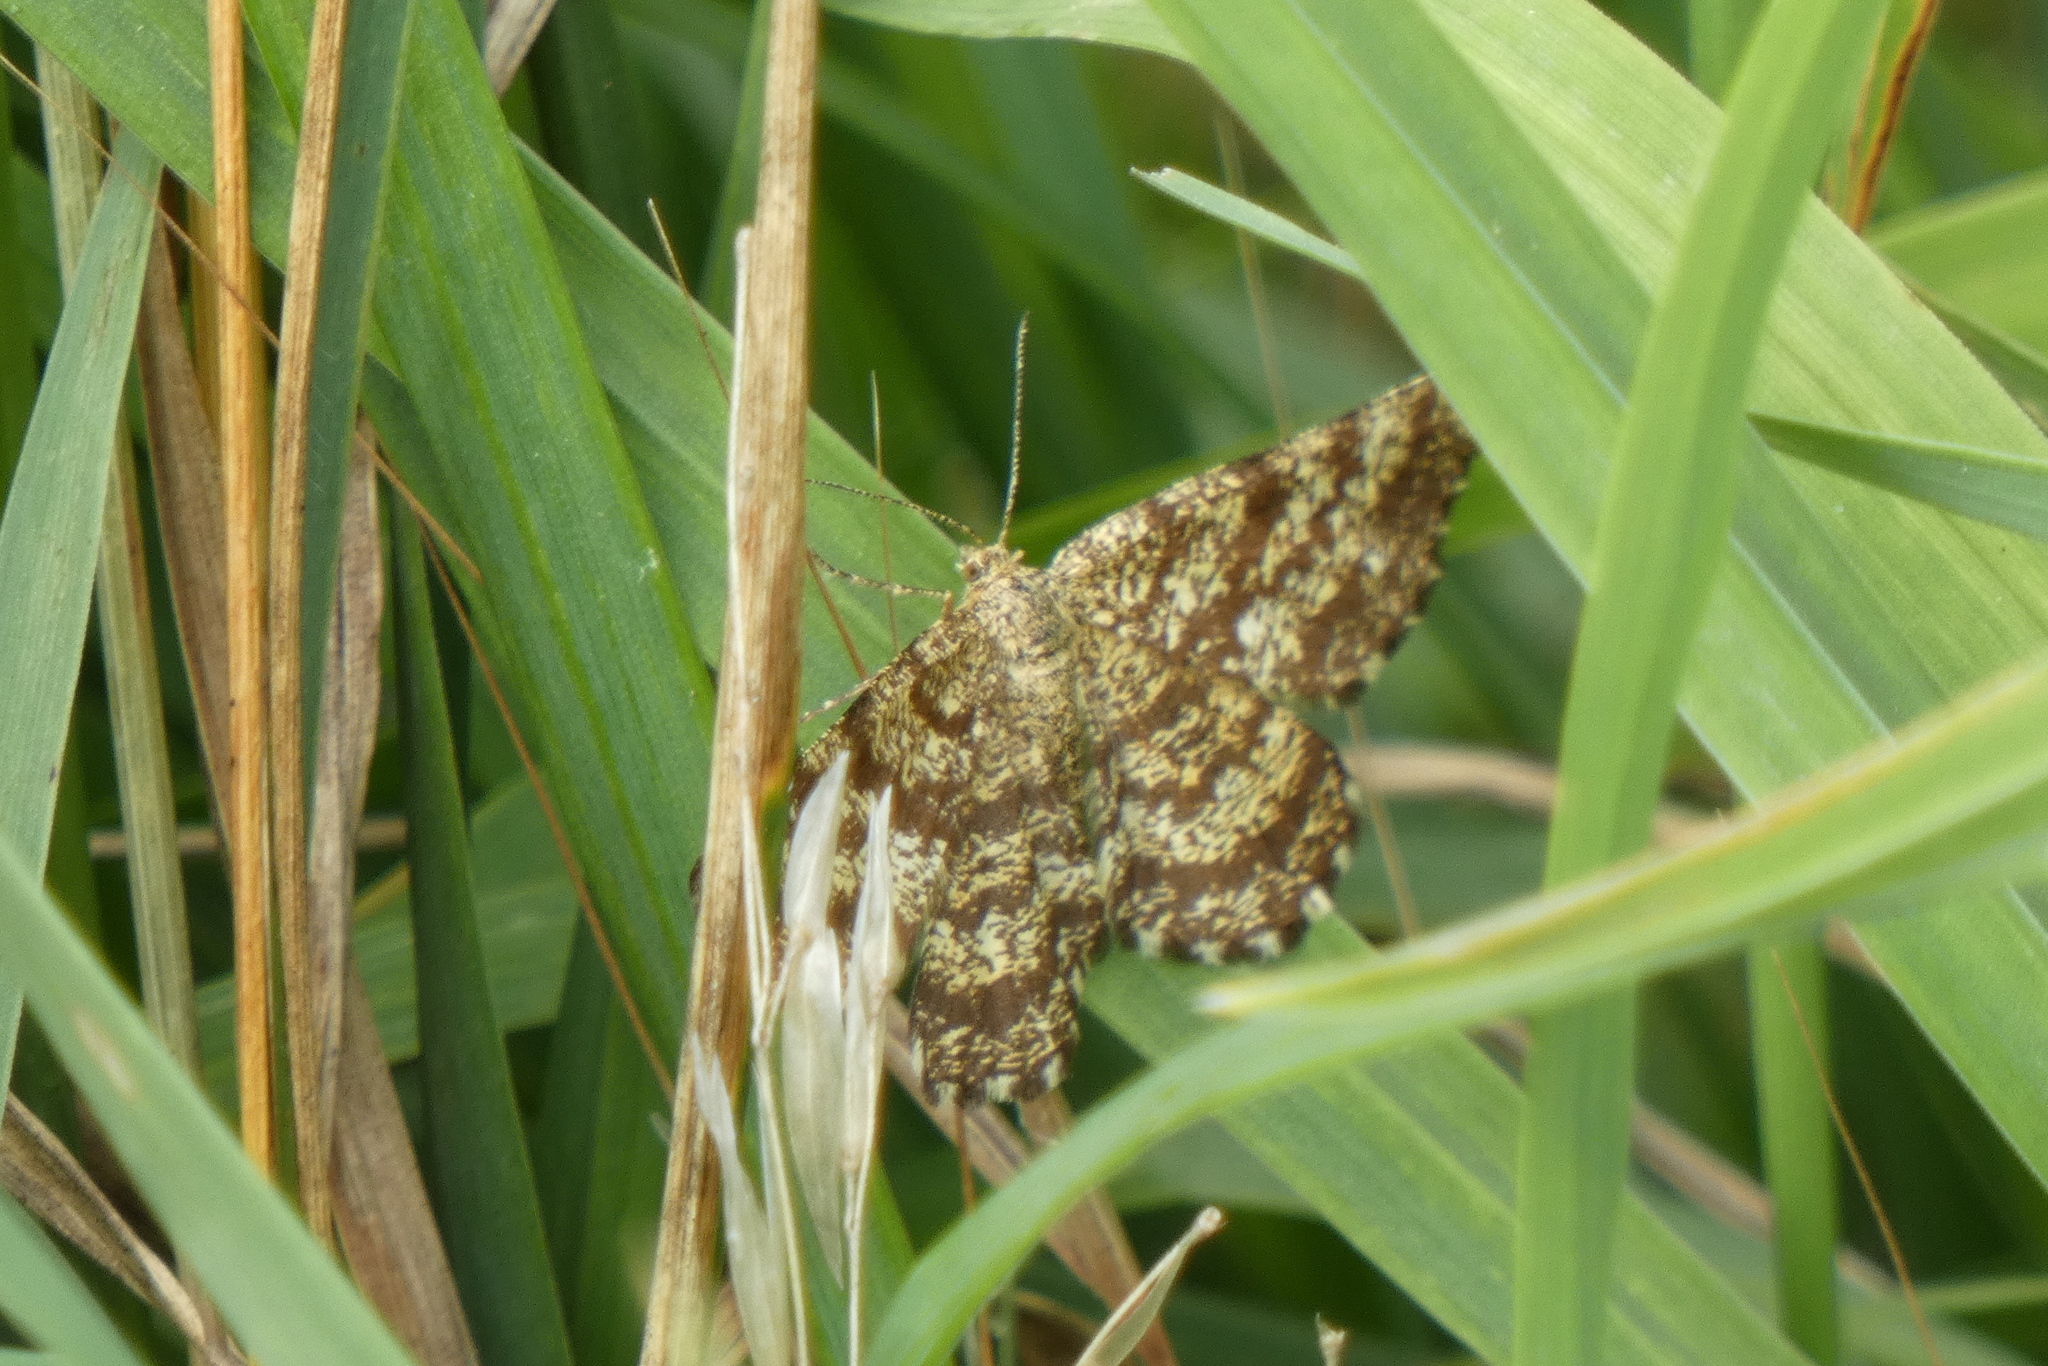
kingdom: Animalia
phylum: Arthropoda
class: Insecta
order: Lepidoptera
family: Geometridae
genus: Ematurga
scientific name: Ematurga atomaria
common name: Common heath
